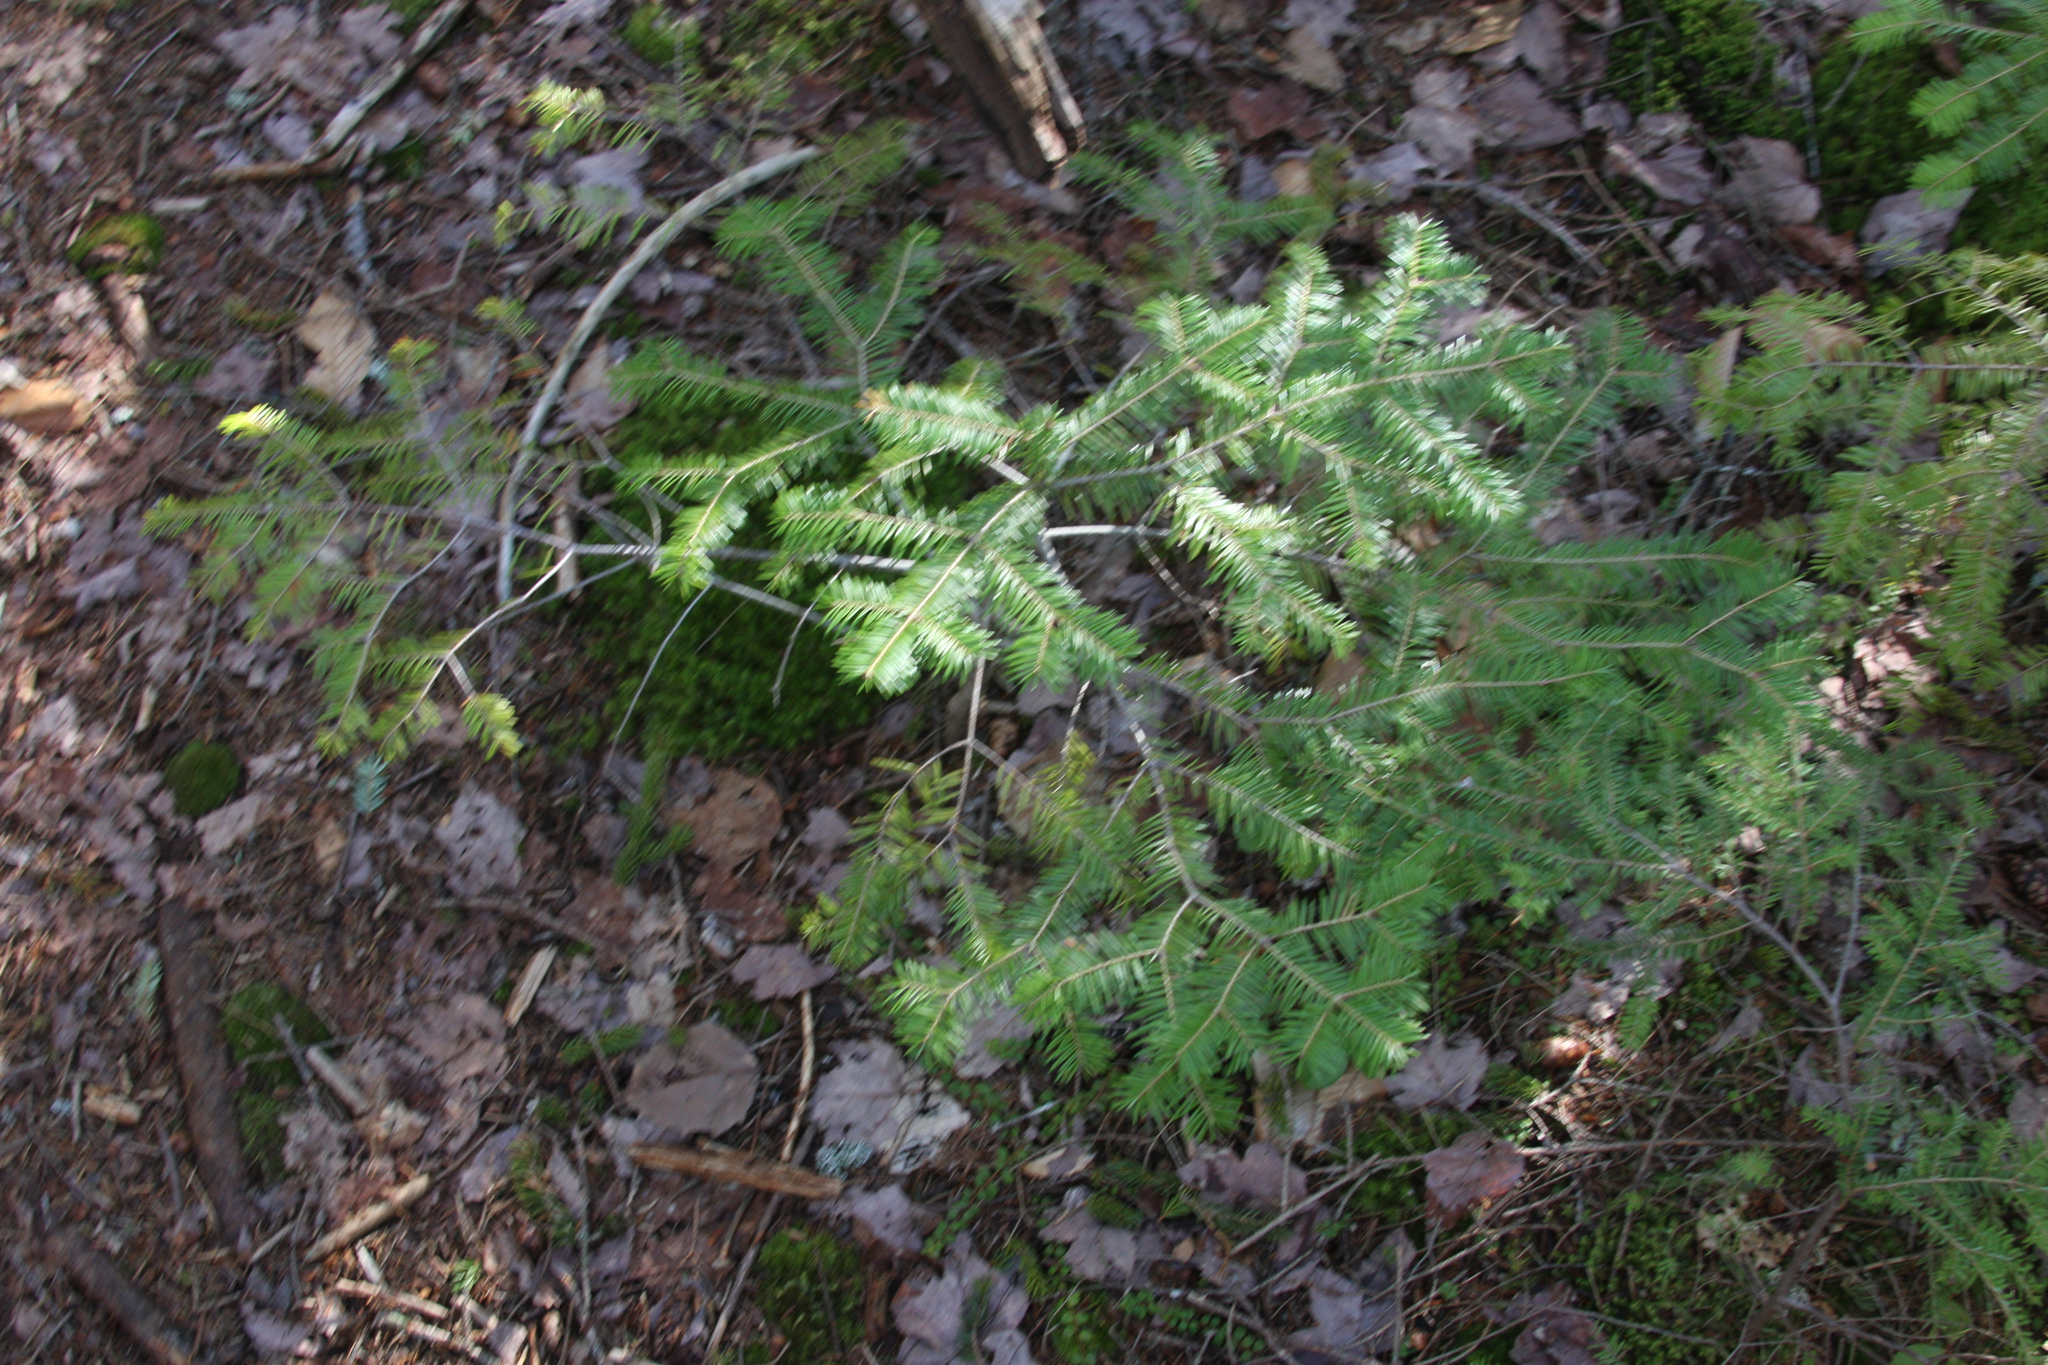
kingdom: Plantae
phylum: Tracheophyta
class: Pinopsida
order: Pinales
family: Pinaceae
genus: Abies
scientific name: Abies balsamea
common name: Balsam fir
